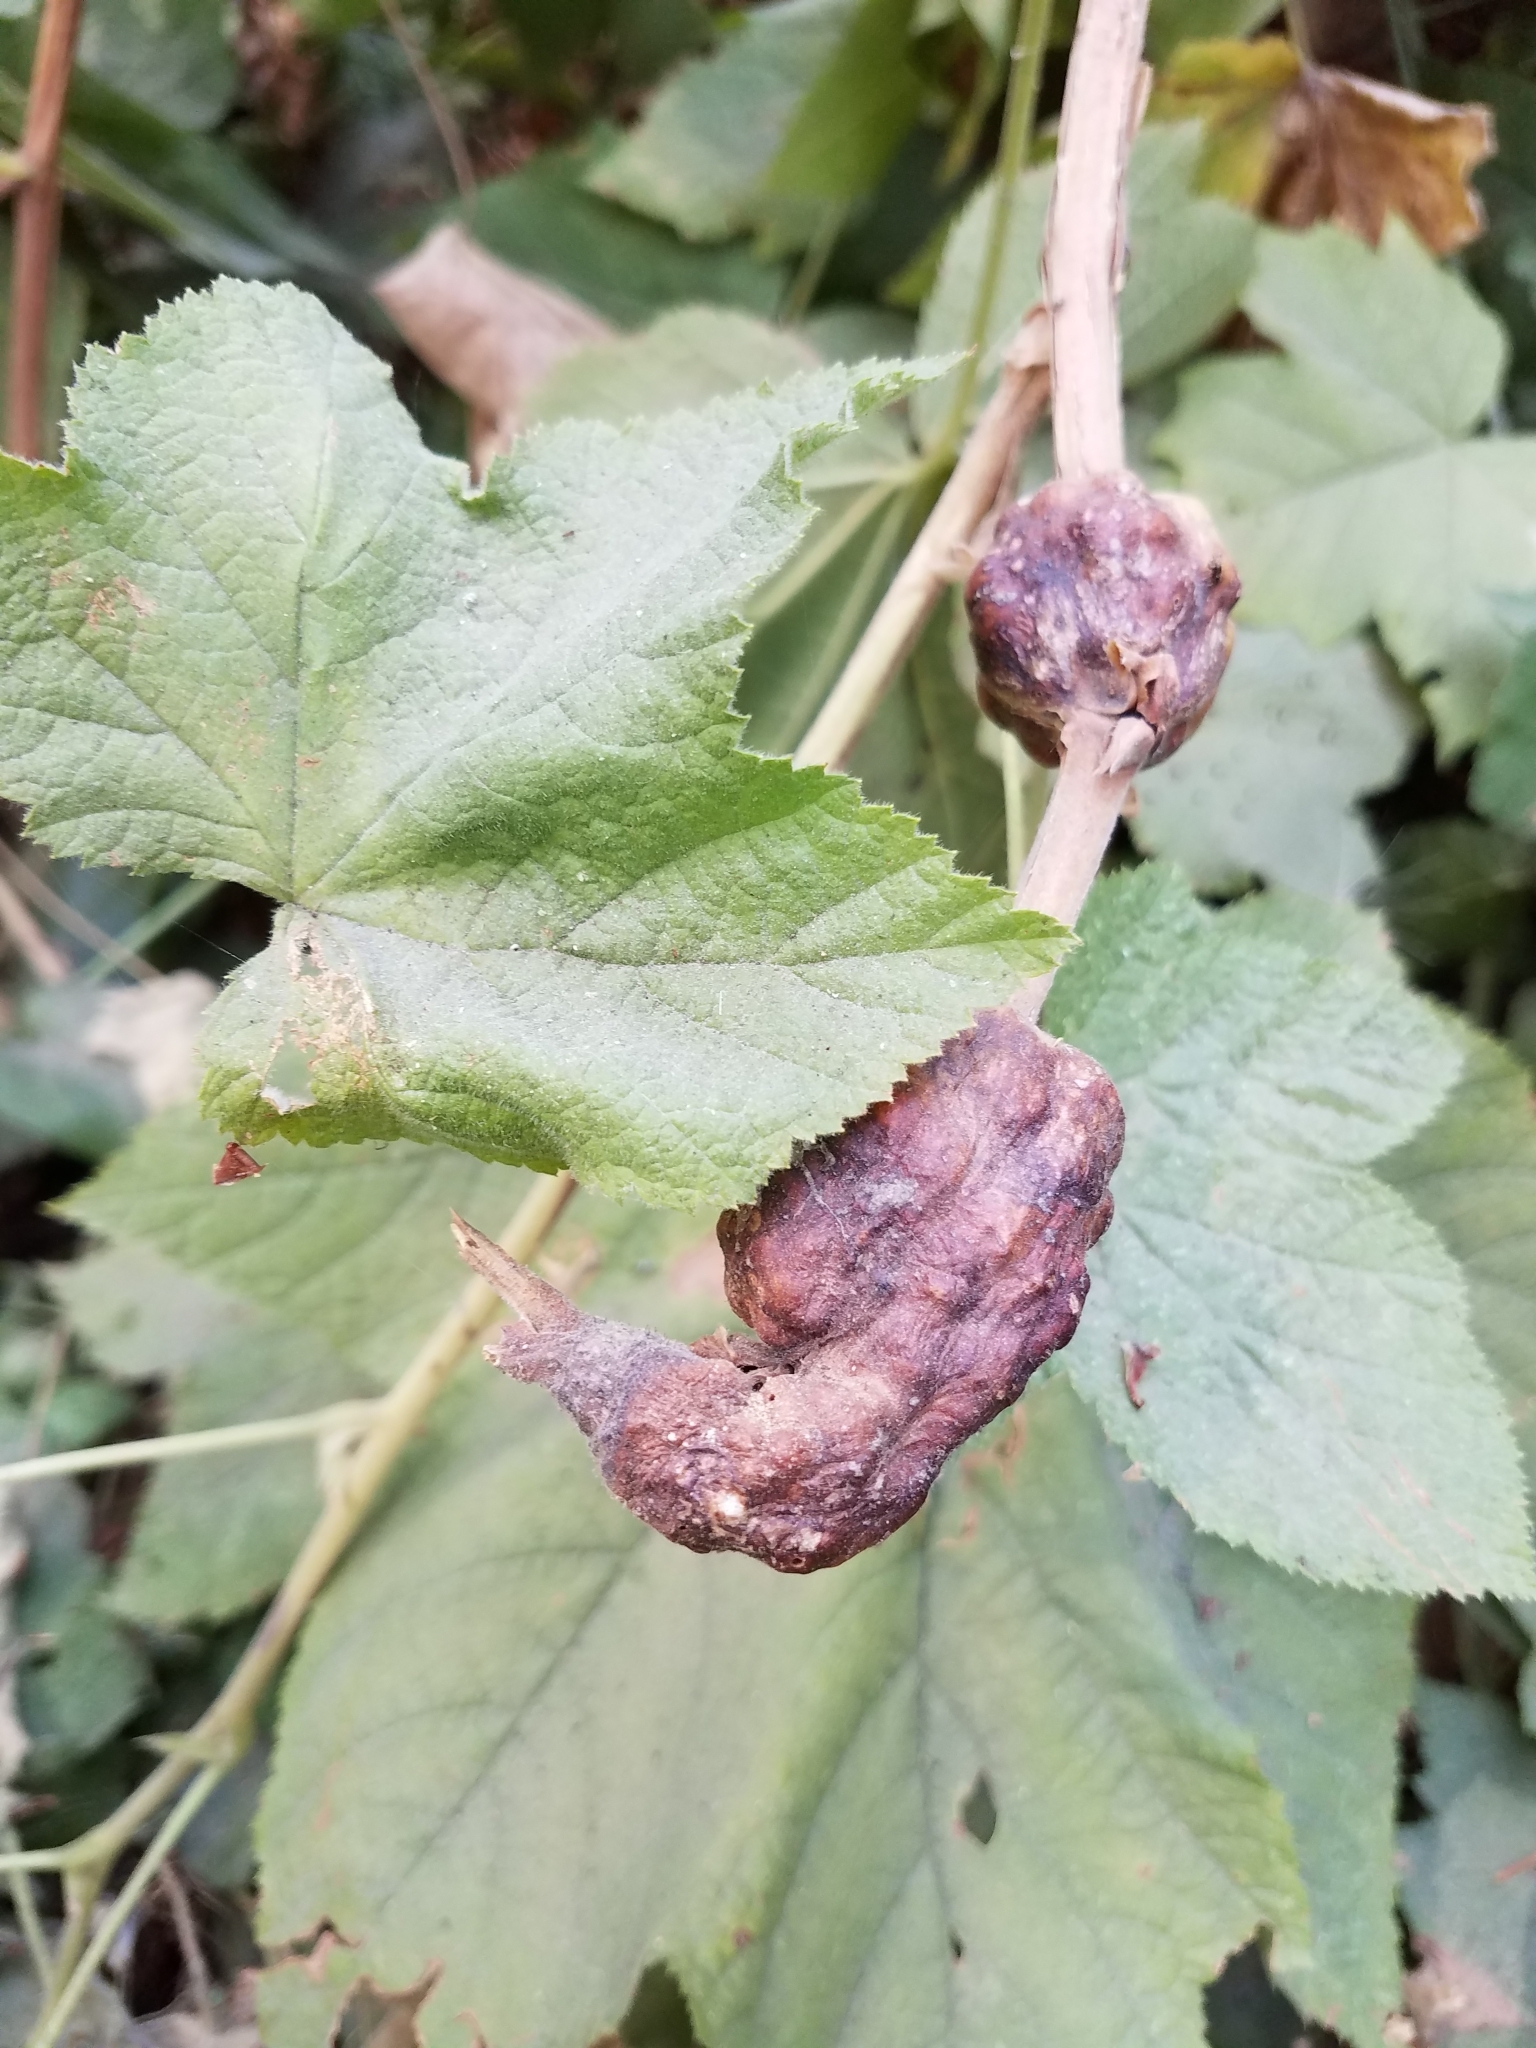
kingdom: Animalia
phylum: Arthropoda
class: Insecta
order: Hymenoptera
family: Cynipidae
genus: Diastrophus
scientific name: Diastrophus
